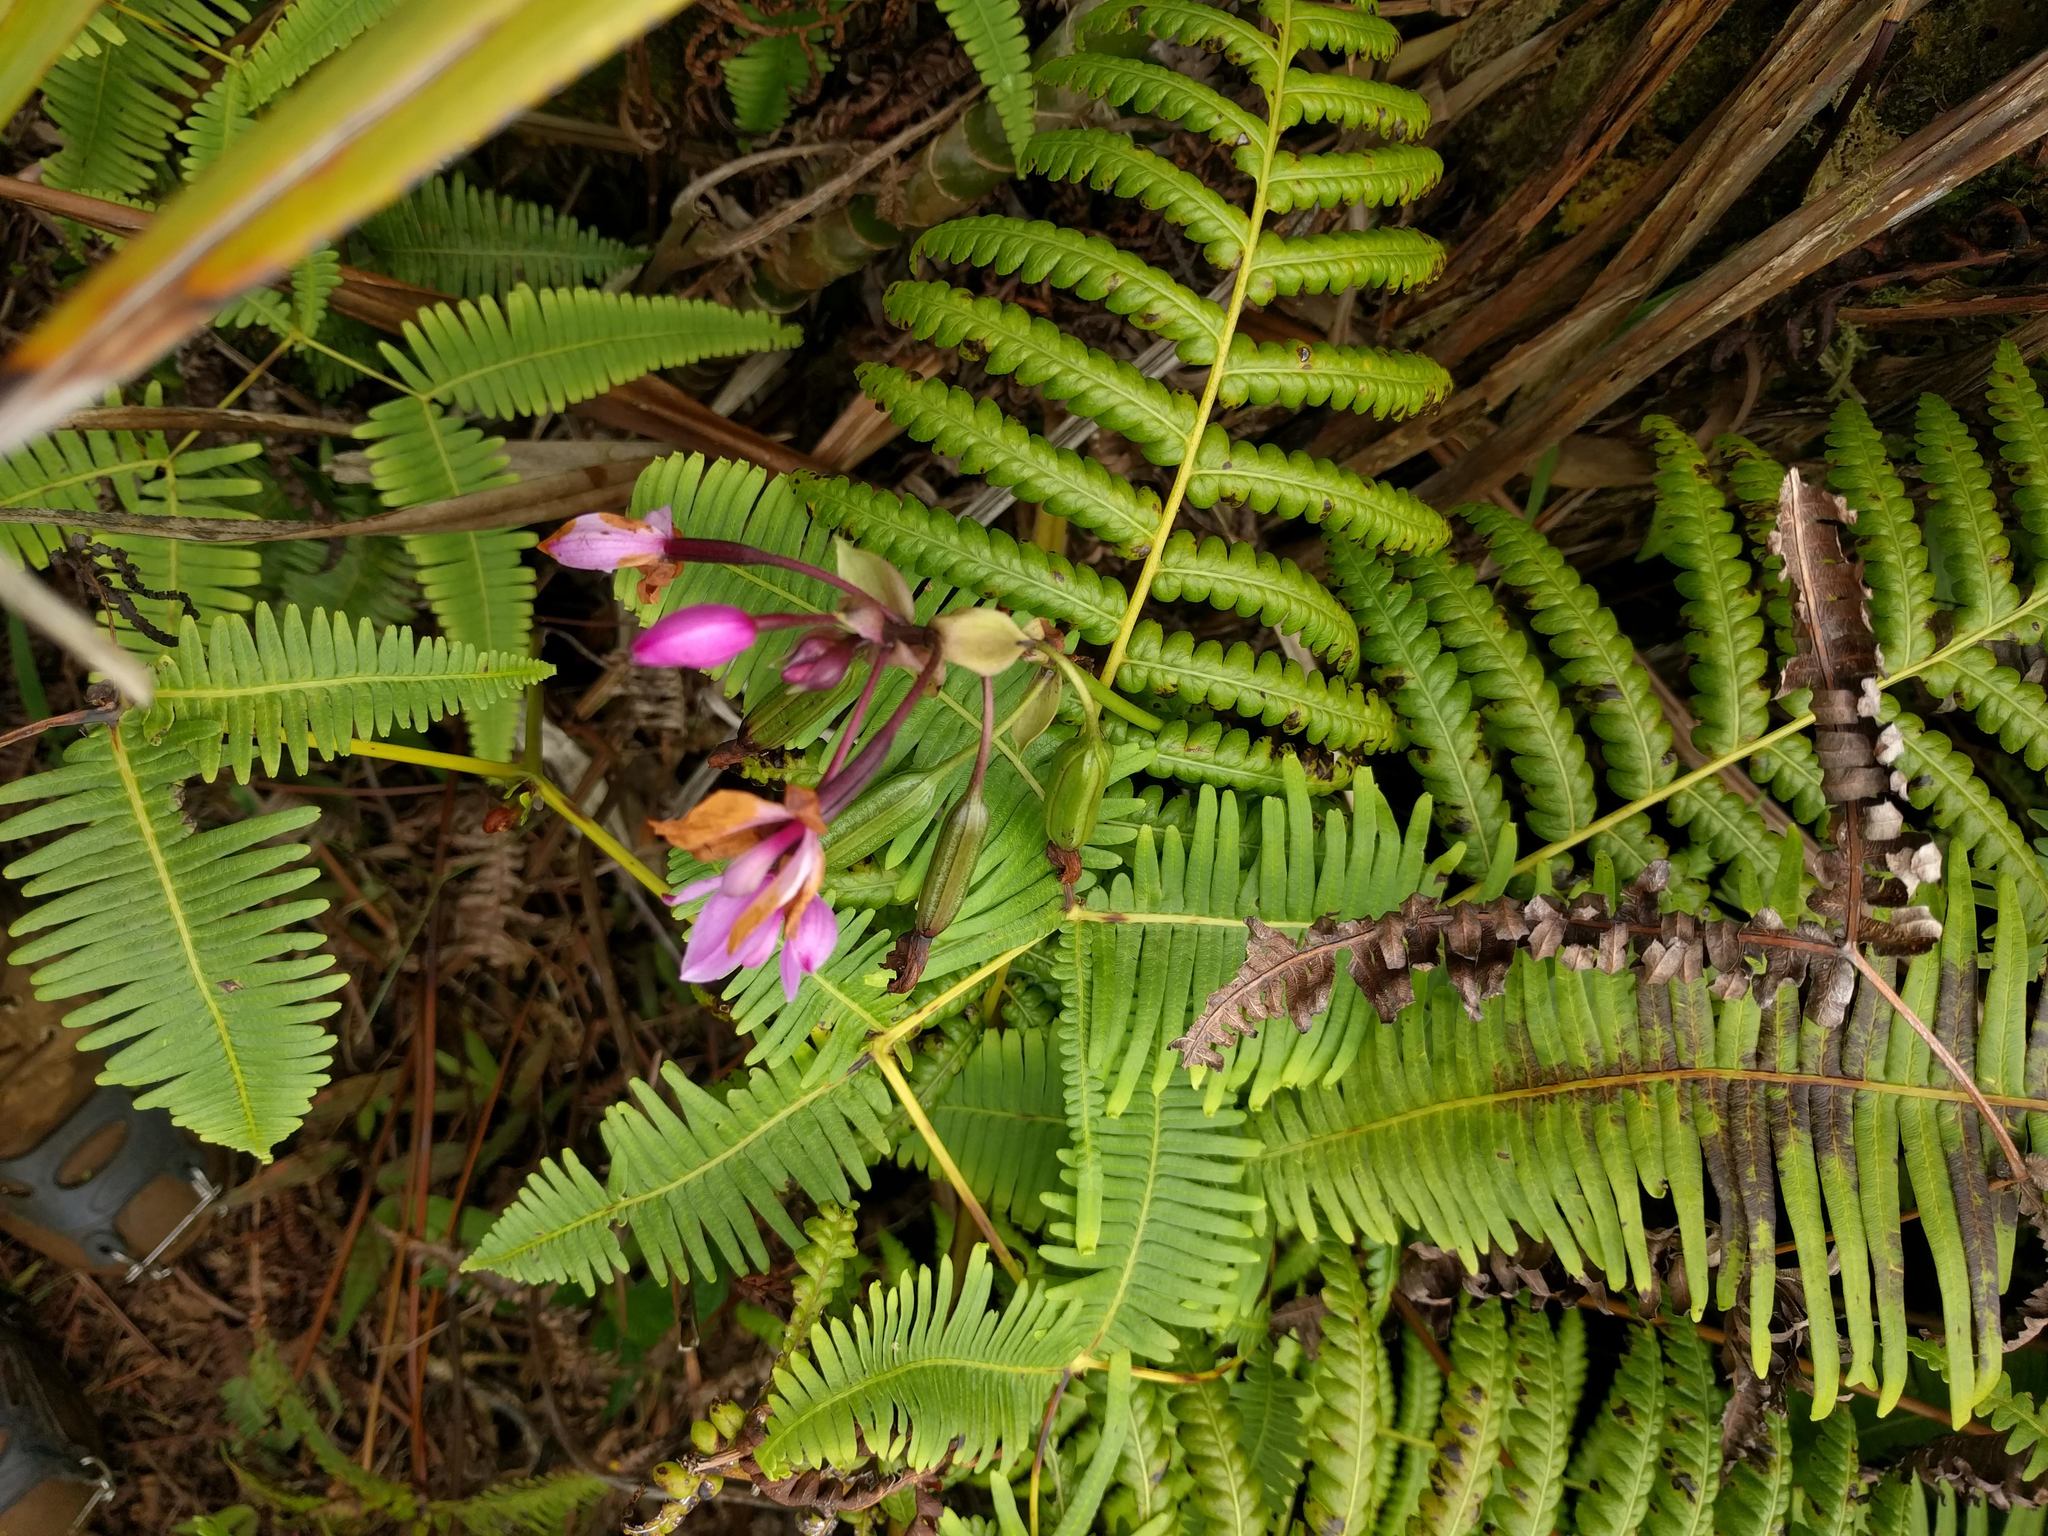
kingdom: Plantae
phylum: Tracheophyta
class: Liliopsida
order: Asparagales
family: Orchidaceae
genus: Spathoglottis
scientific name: Spathoglottis plicata
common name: Philippine ground orchid
